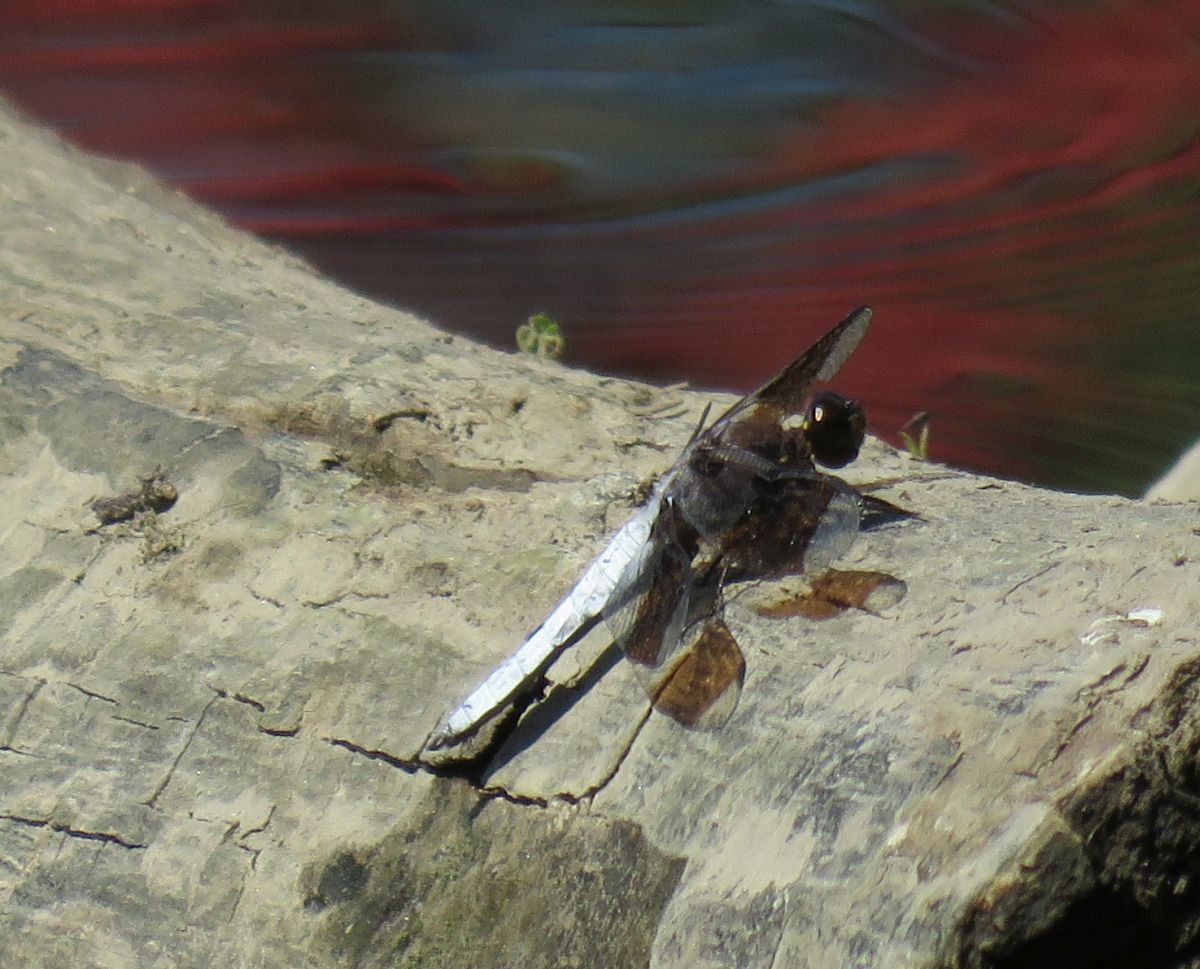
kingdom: Animalia
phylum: Arthropoda
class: Insecta
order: Odonata
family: Libellulidae
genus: Plathemis
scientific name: Plathemis lydia
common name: Common whitetail
